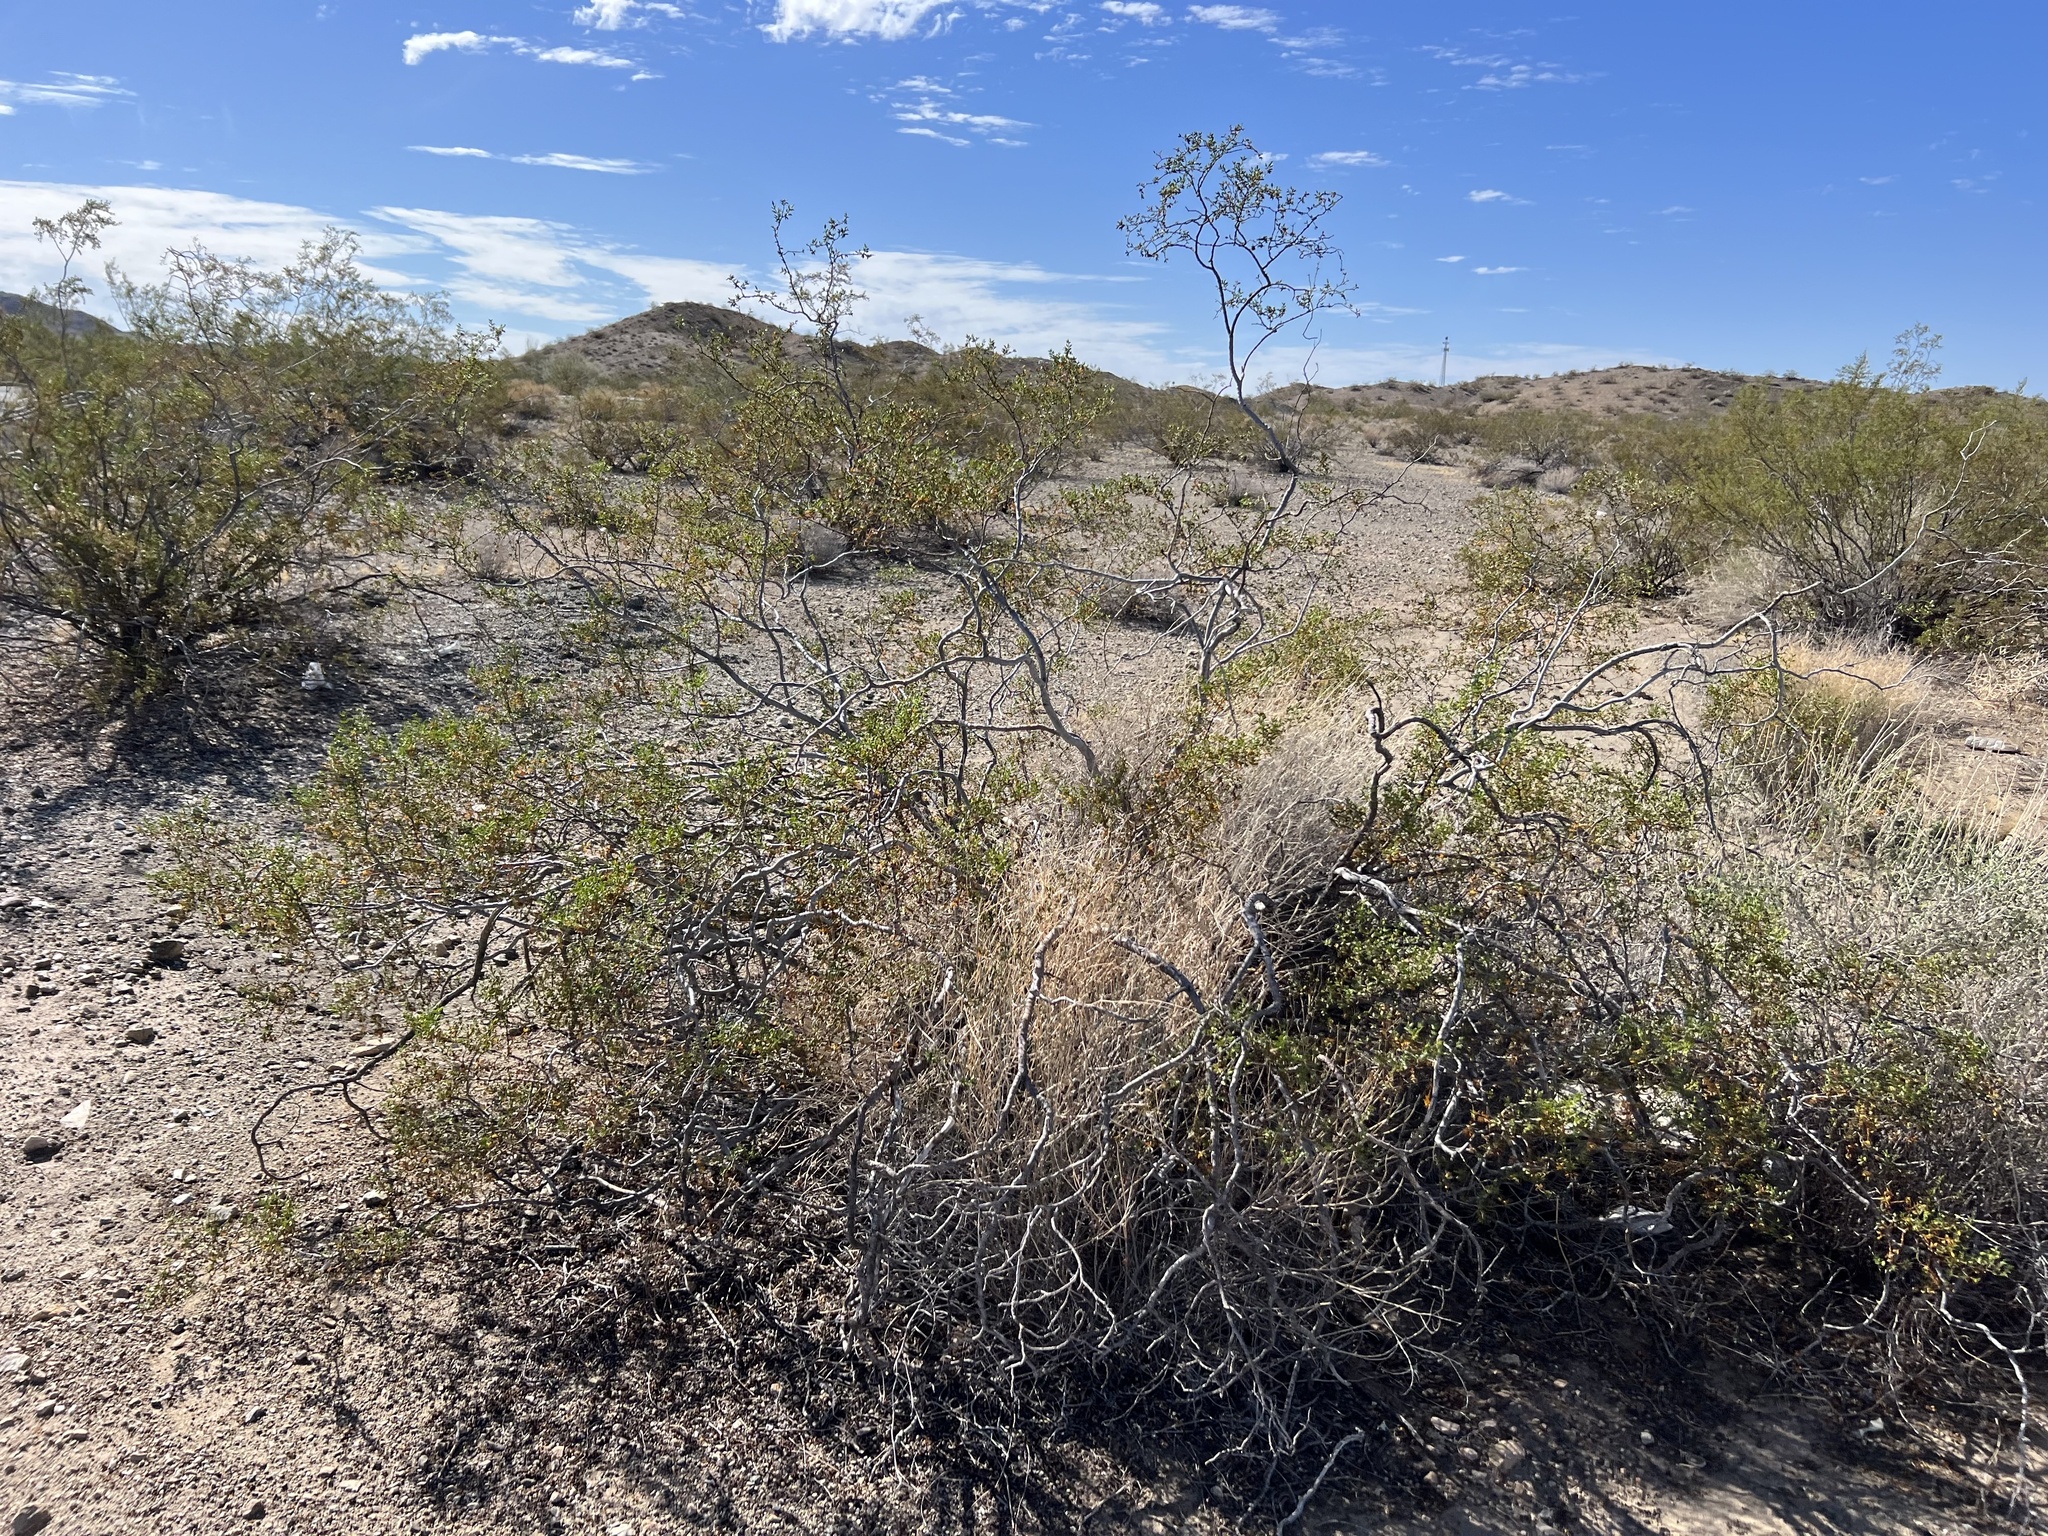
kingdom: Plantae
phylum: Tracheophyta
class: Magnoliopsida
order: Zygophyllales
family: Zygophyllaceae
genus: Larrea
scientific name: Larrea tridentata
